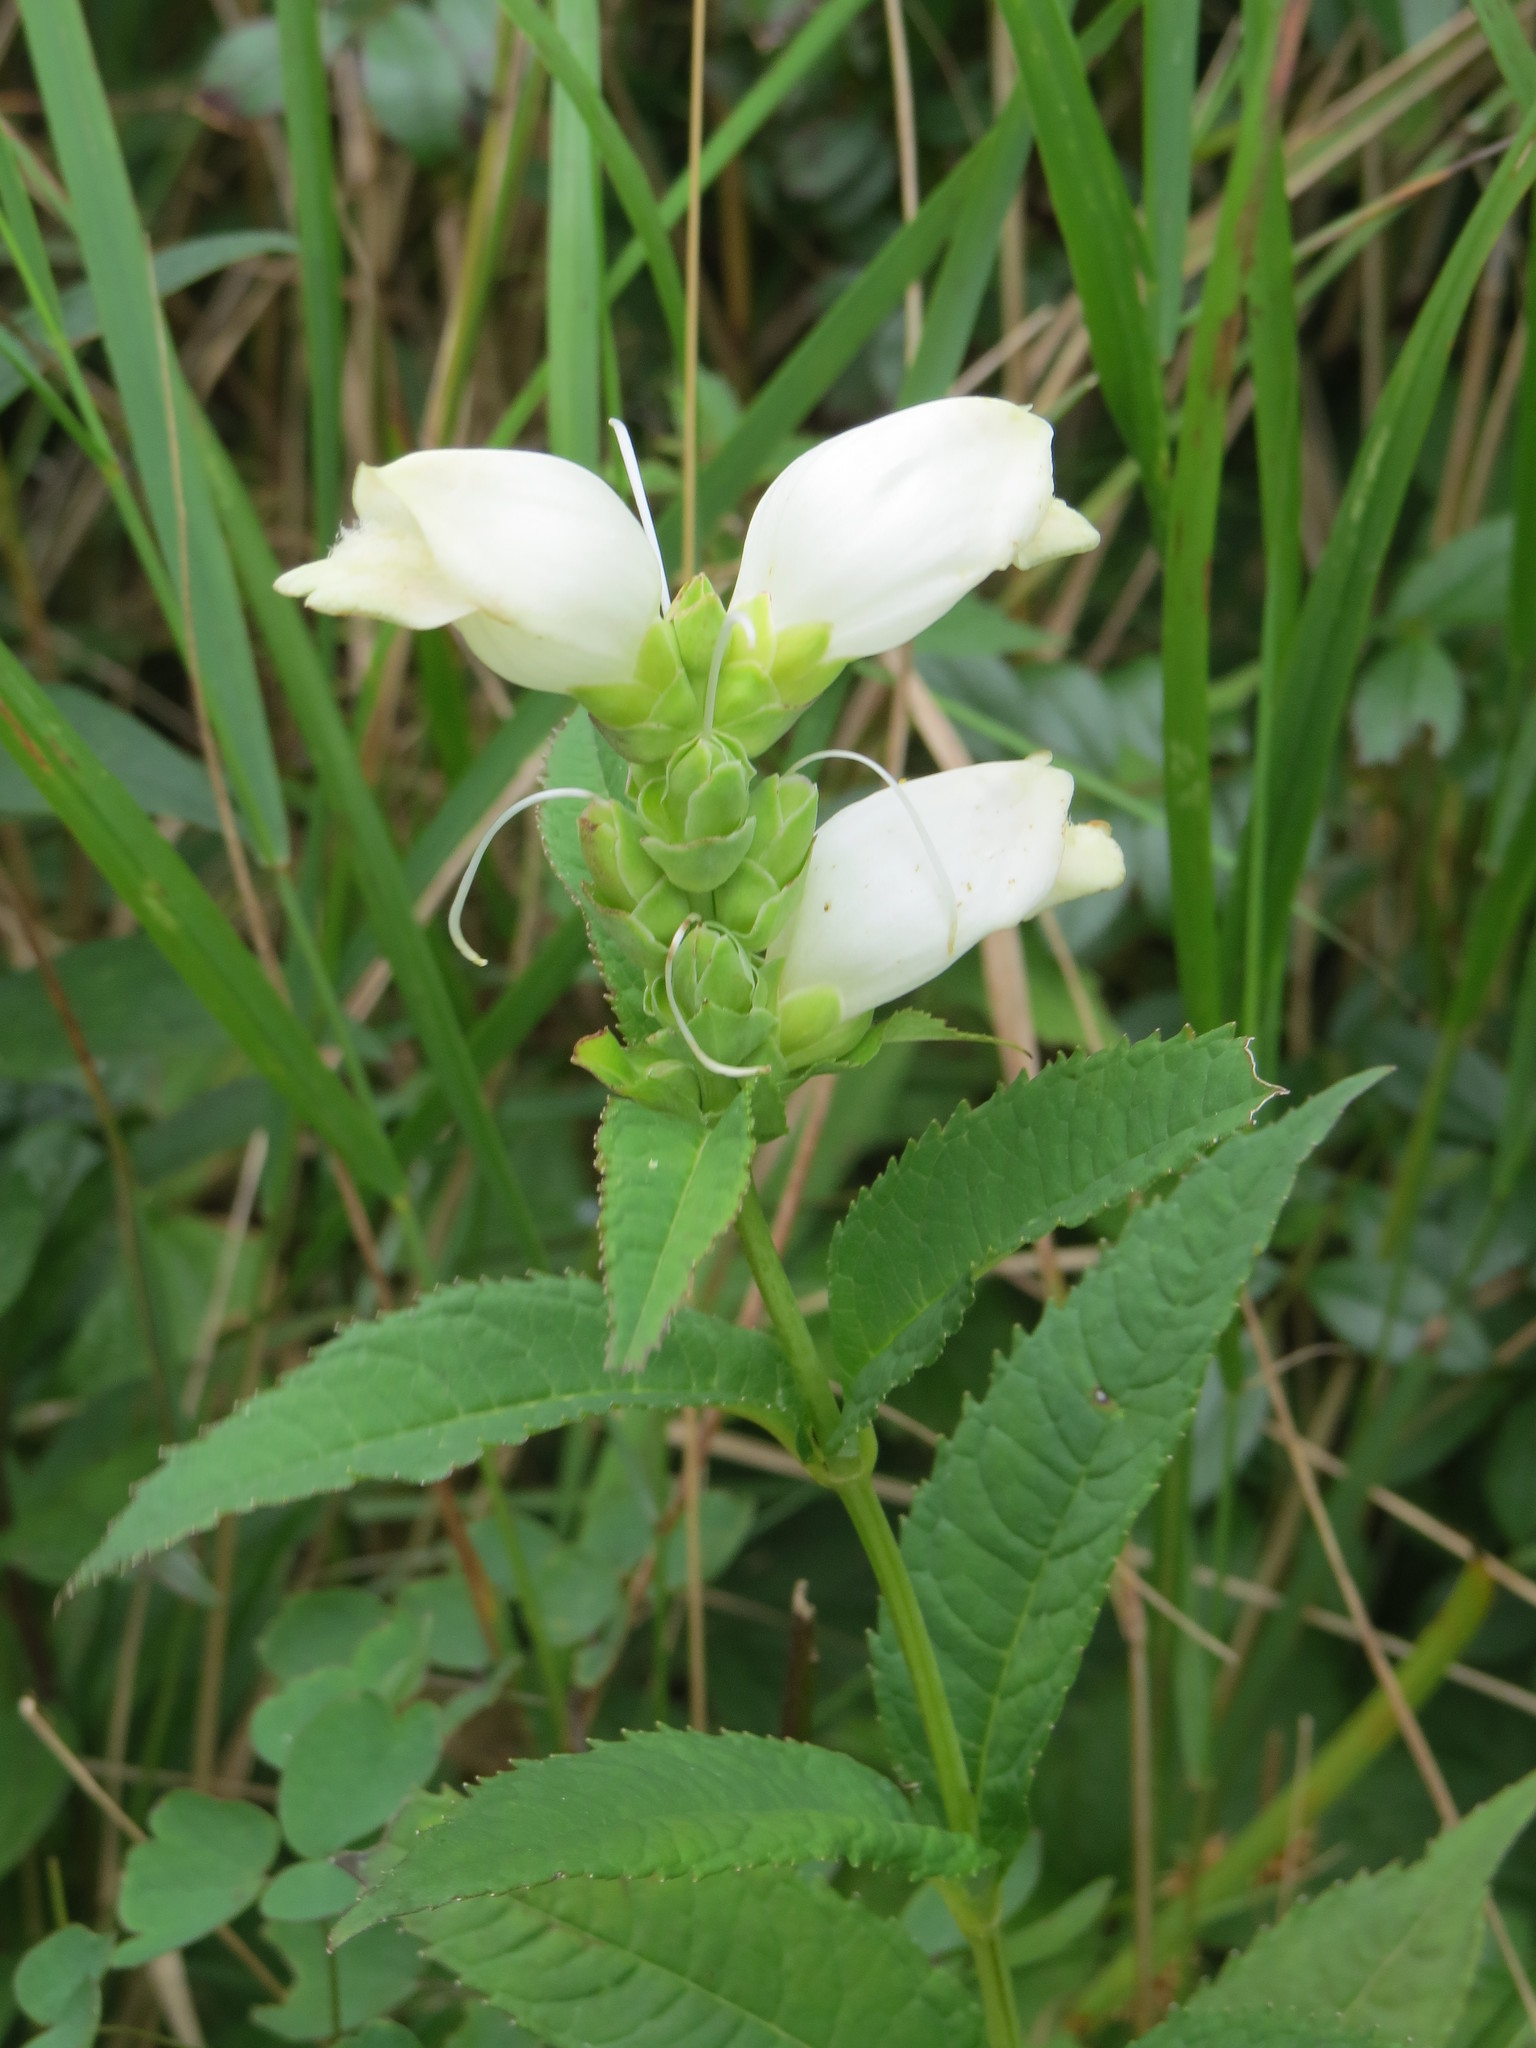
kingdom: Plantae
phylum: Tracheophyta
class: Magnoliopsida
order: Lamiales
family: Plantaginaceae
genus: Chelone
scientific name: Chelone glabra
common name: Snakehead
